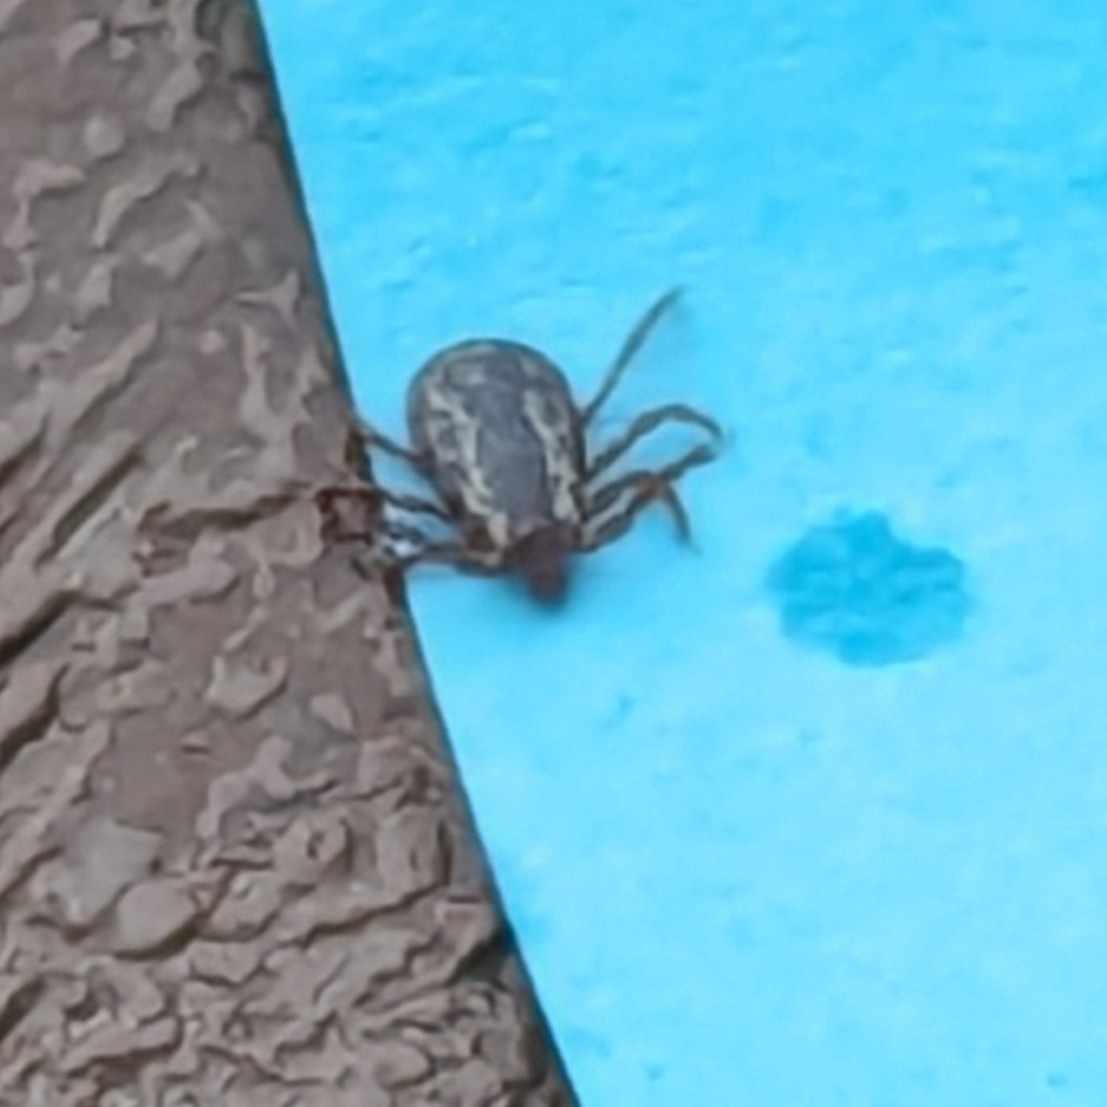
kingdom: Animalia
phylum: Arthropoda
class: Arachnida
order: Ixodida
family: Ixodidae
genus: Dermacentor
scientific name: Dermacentor variabilis
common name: American dog tick
